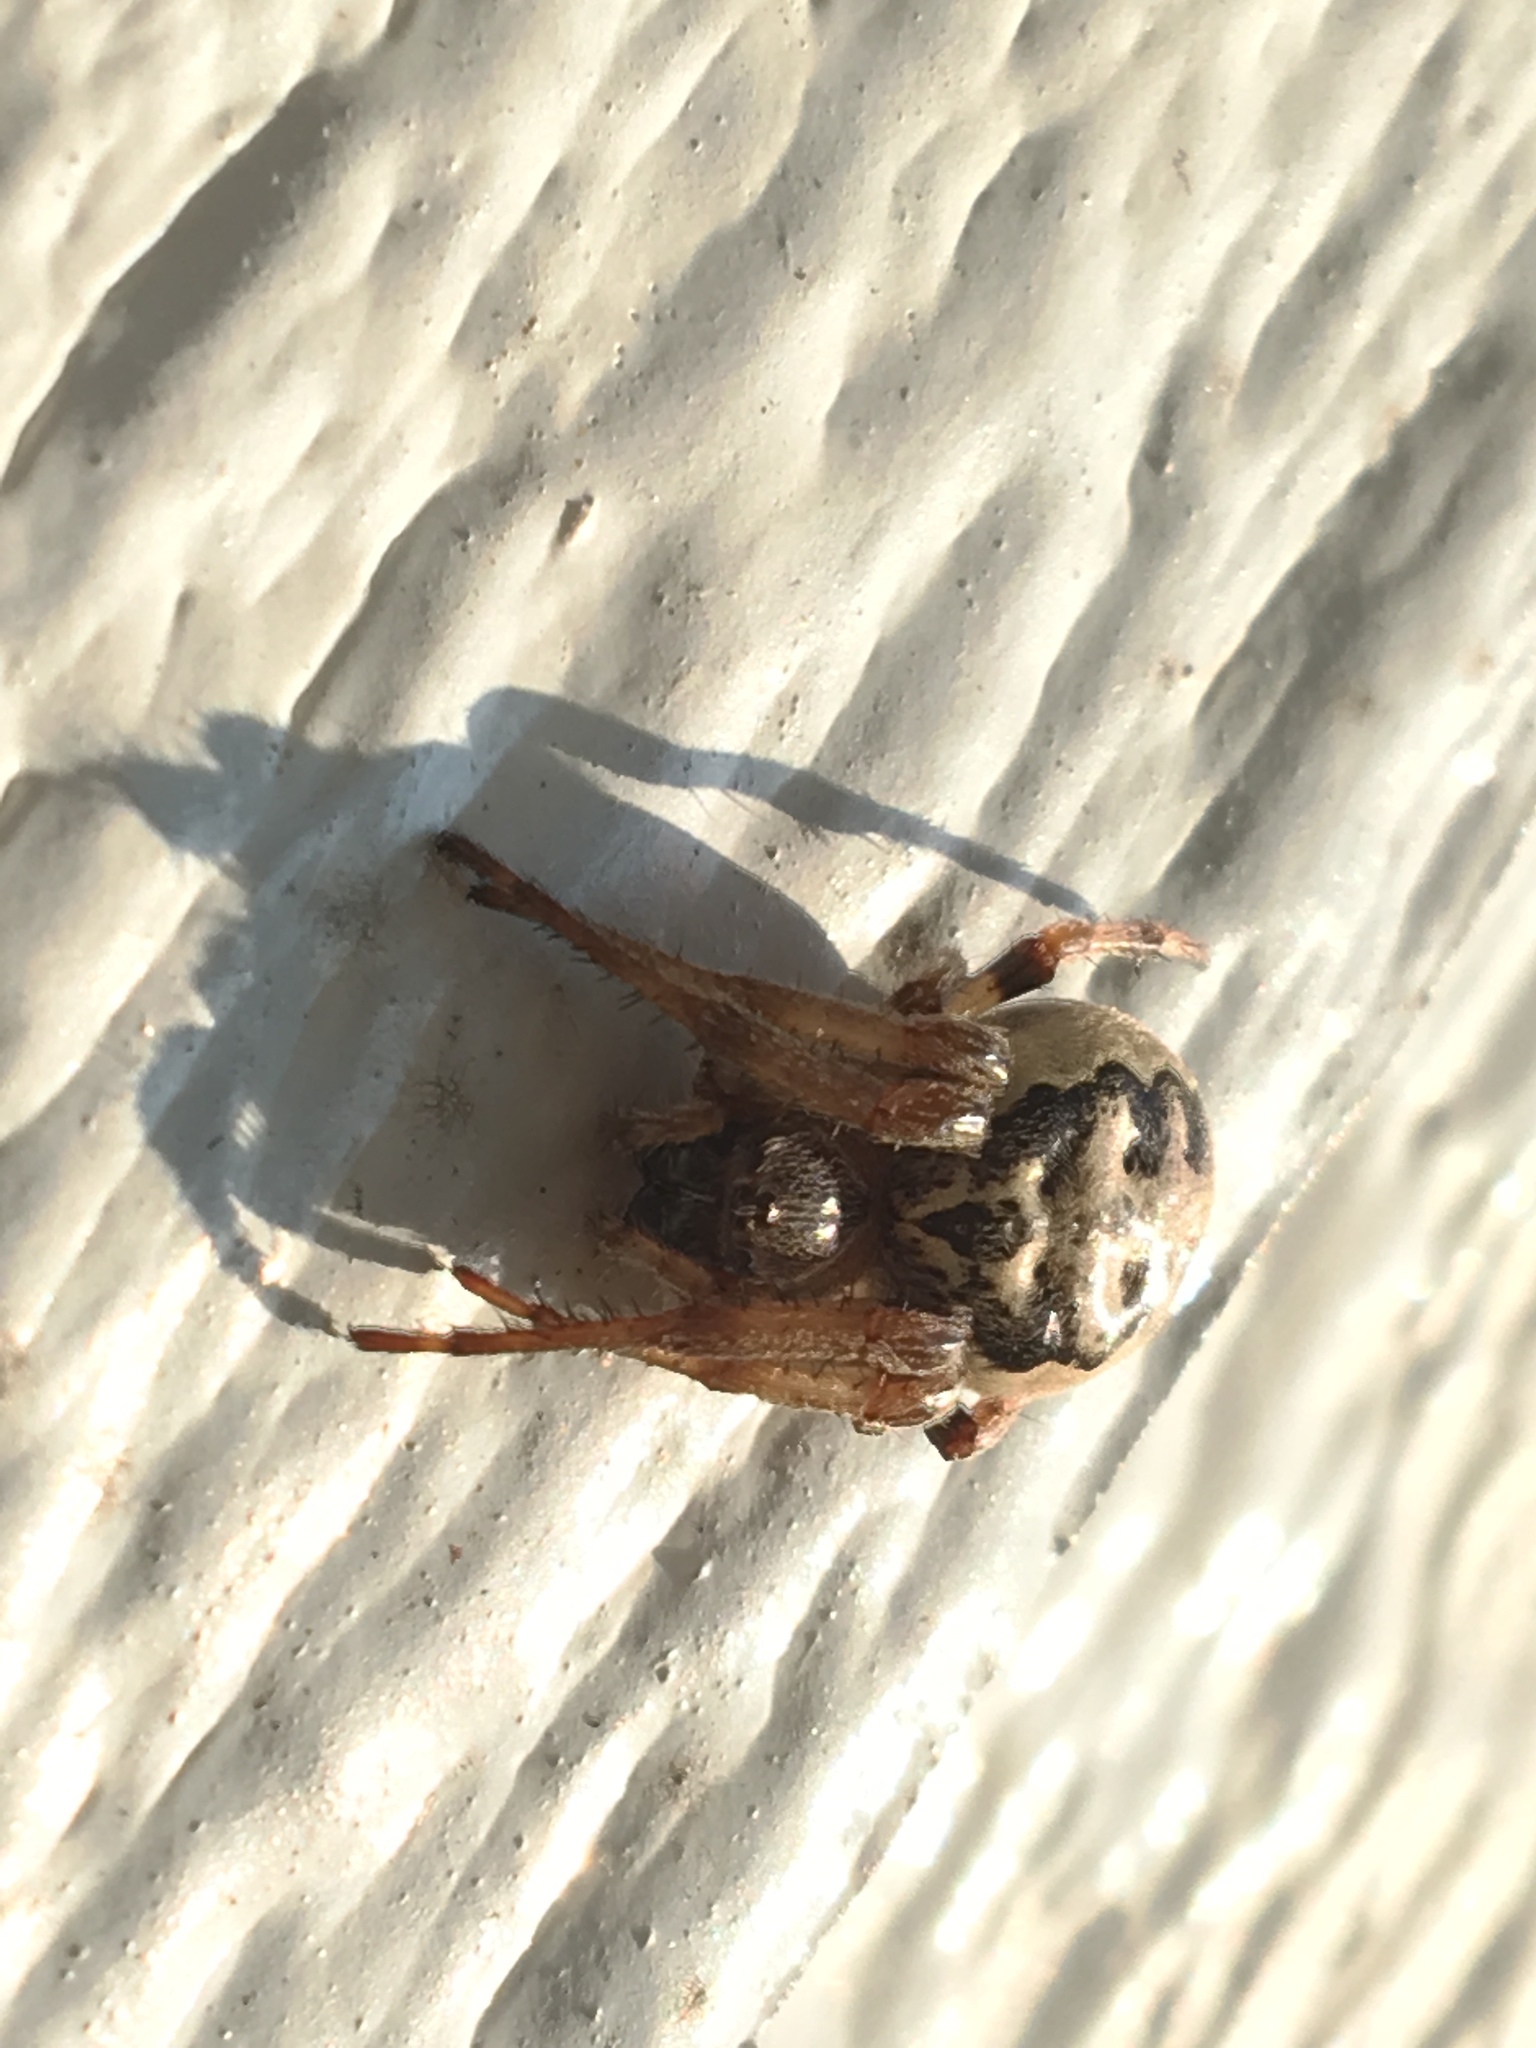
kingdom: Animalia
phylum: Arthropoda
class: Arachnida
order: Araneae
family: Araneidae
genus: Larinioides
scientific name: Larinioides cornutus
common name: Furrow orbweaver
